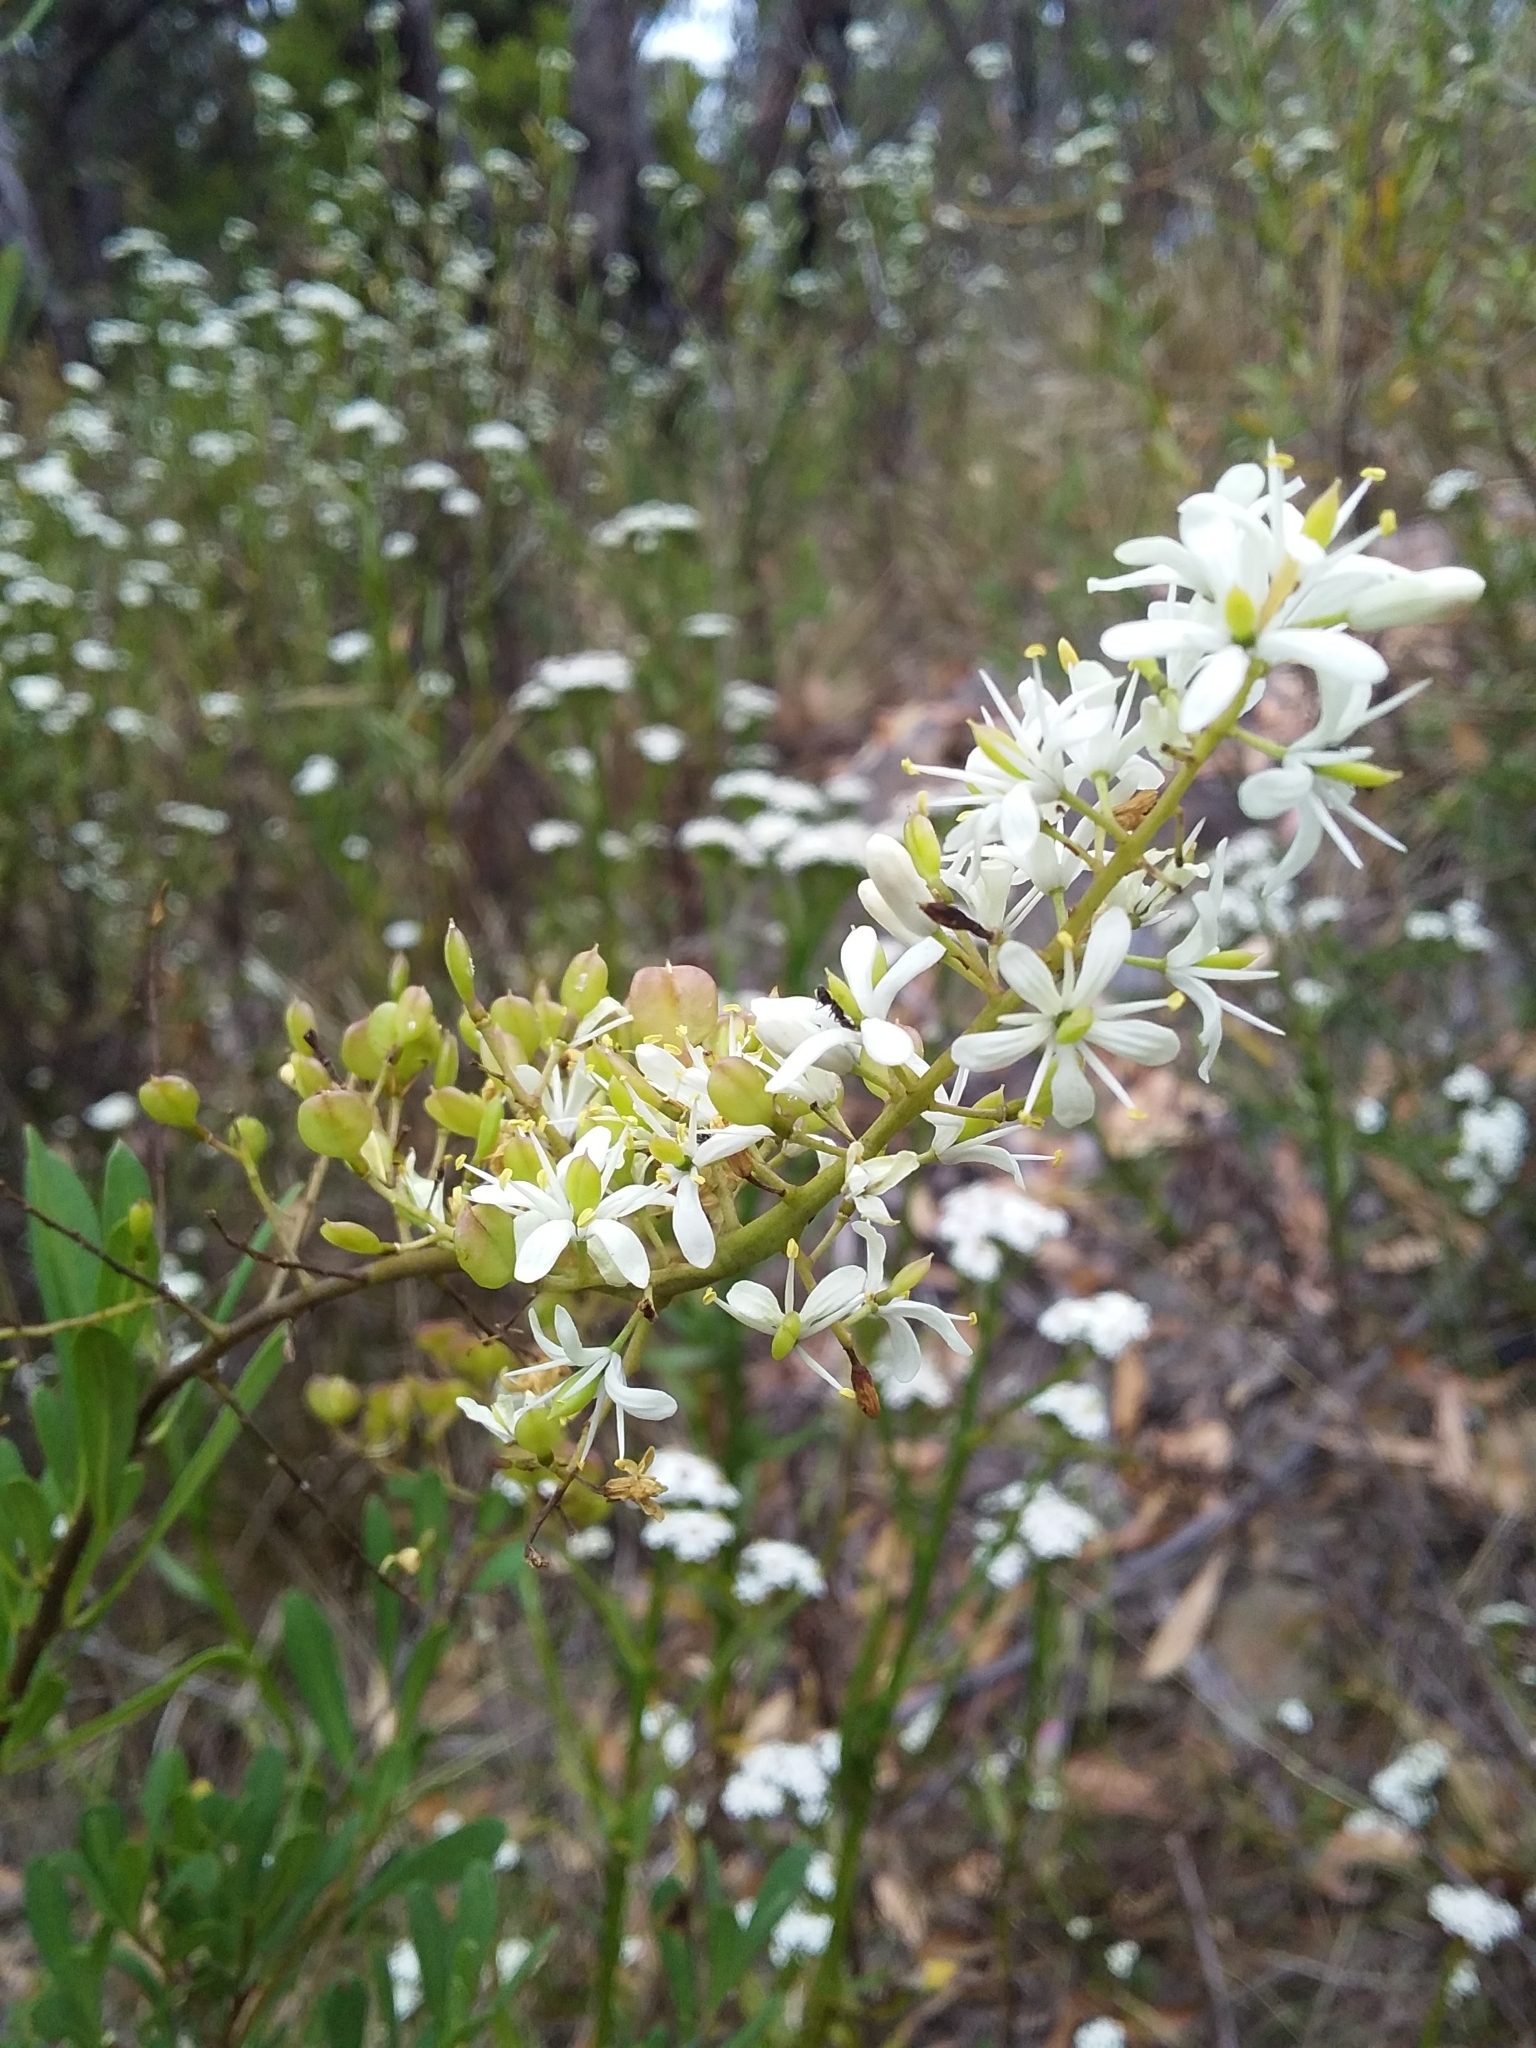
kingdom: Plantae
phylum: Tracheophyta
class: Magnoliopsida
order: Apiales
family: Pittosporaceae
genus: Bursaria
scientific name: Bursaria spinosa
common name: Australian blackthorn
